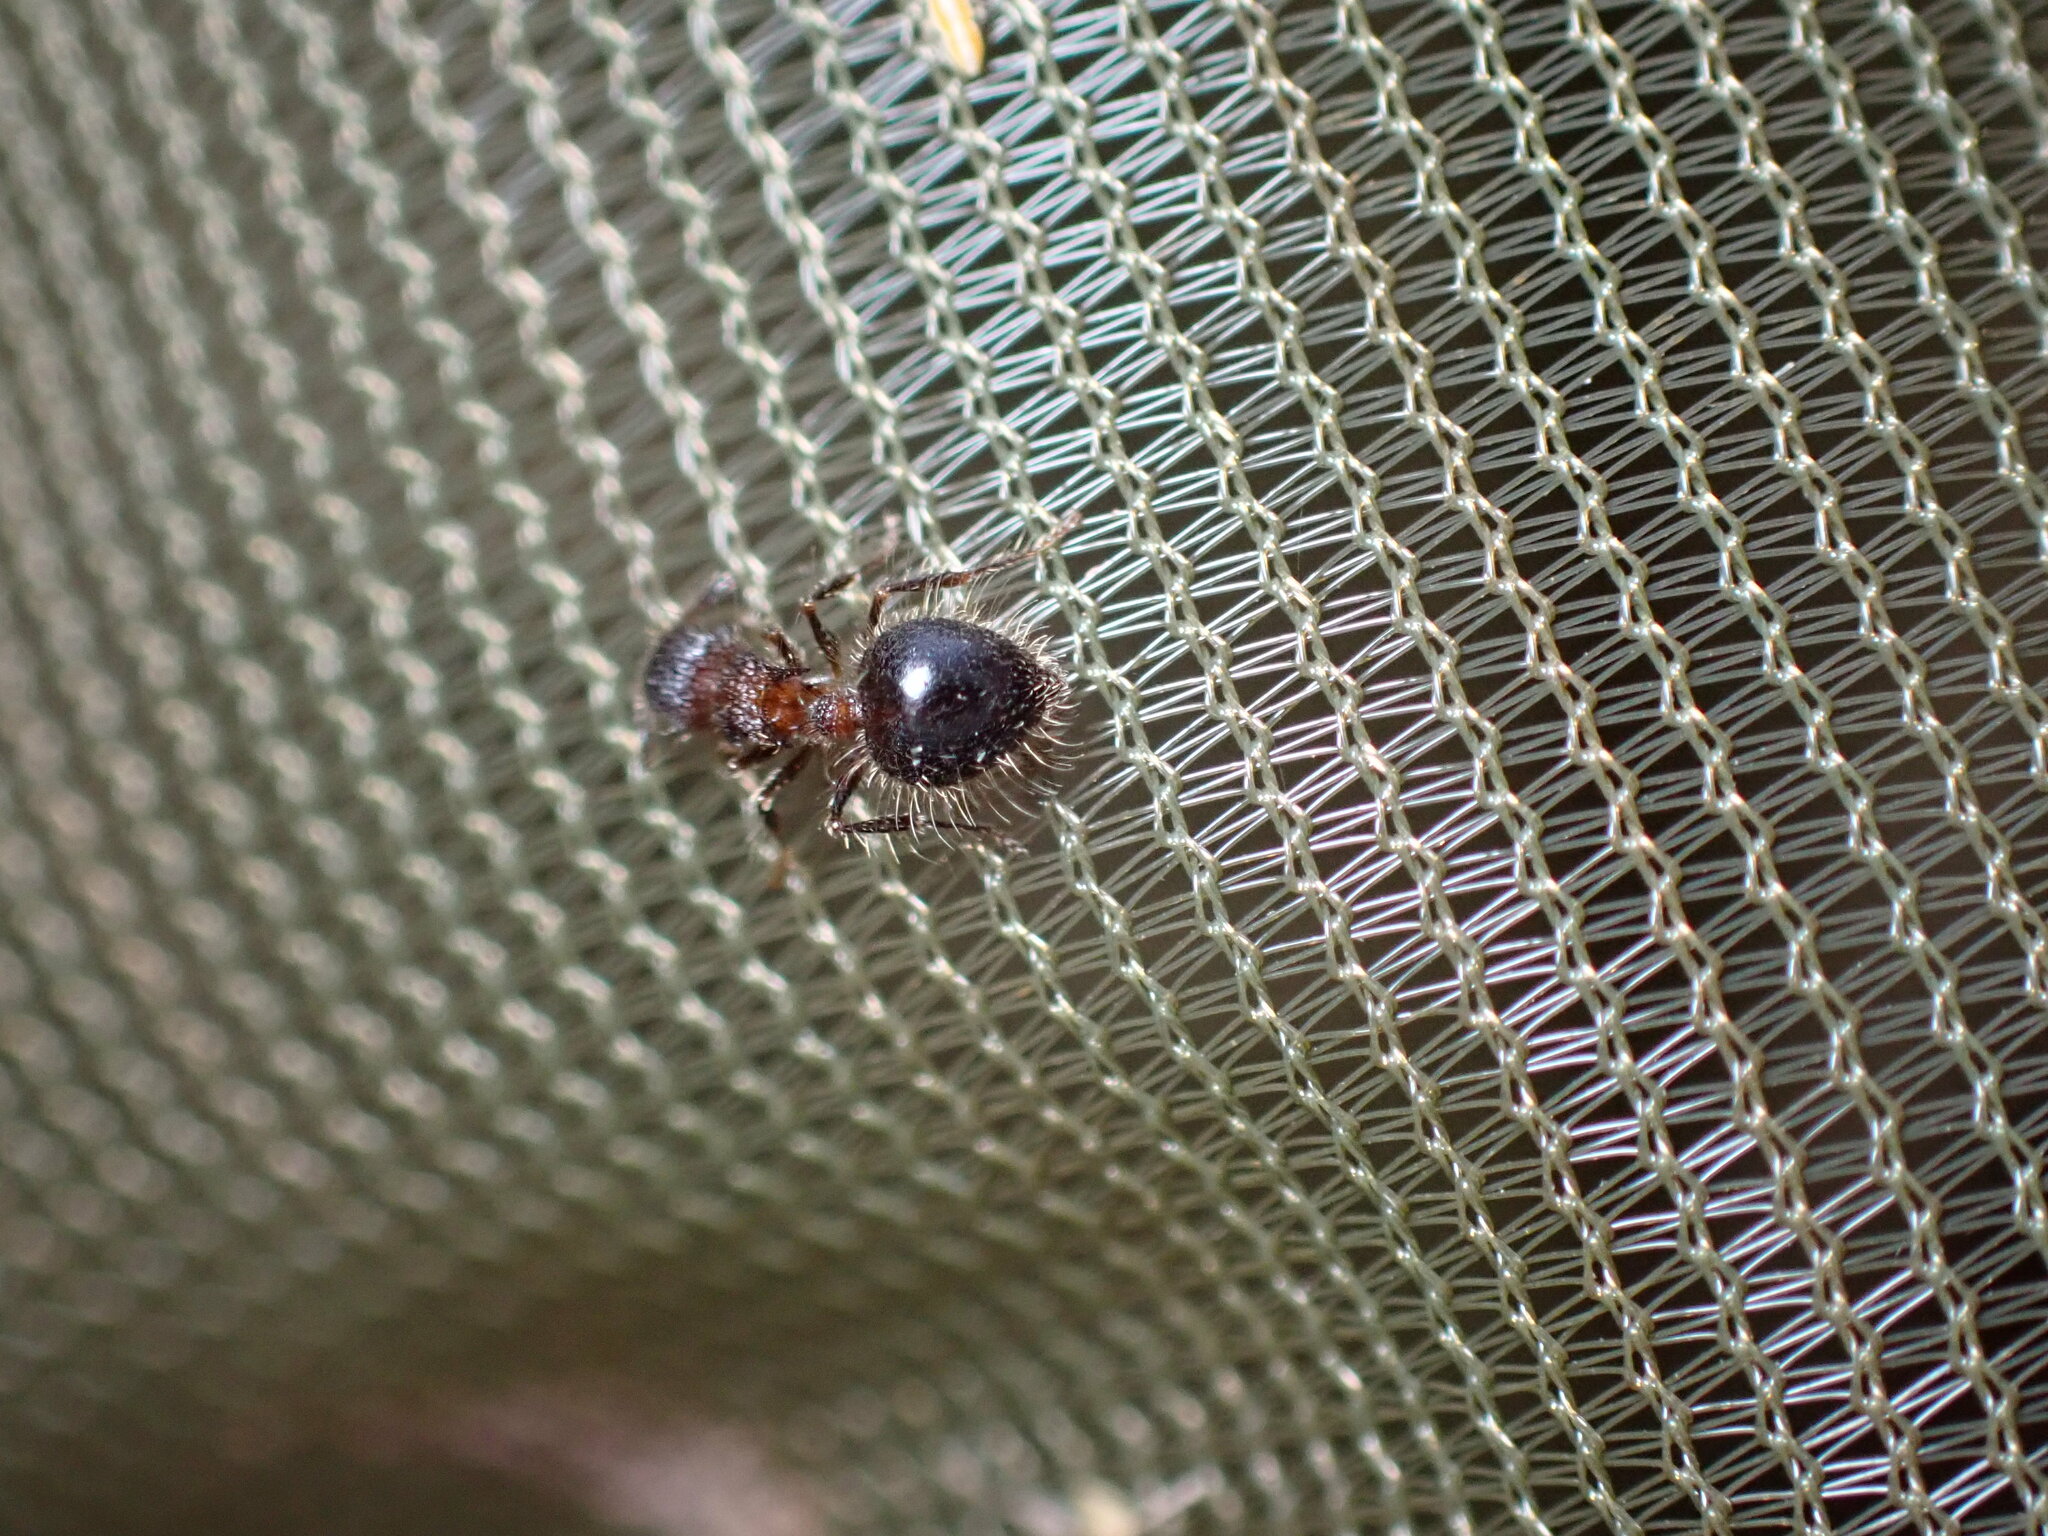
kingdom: Animalia
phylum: Arthropoda
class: Insecta
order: Hymenoptera
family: Formicidae
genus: Meranoplus
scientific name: Meranoplus bicolor
